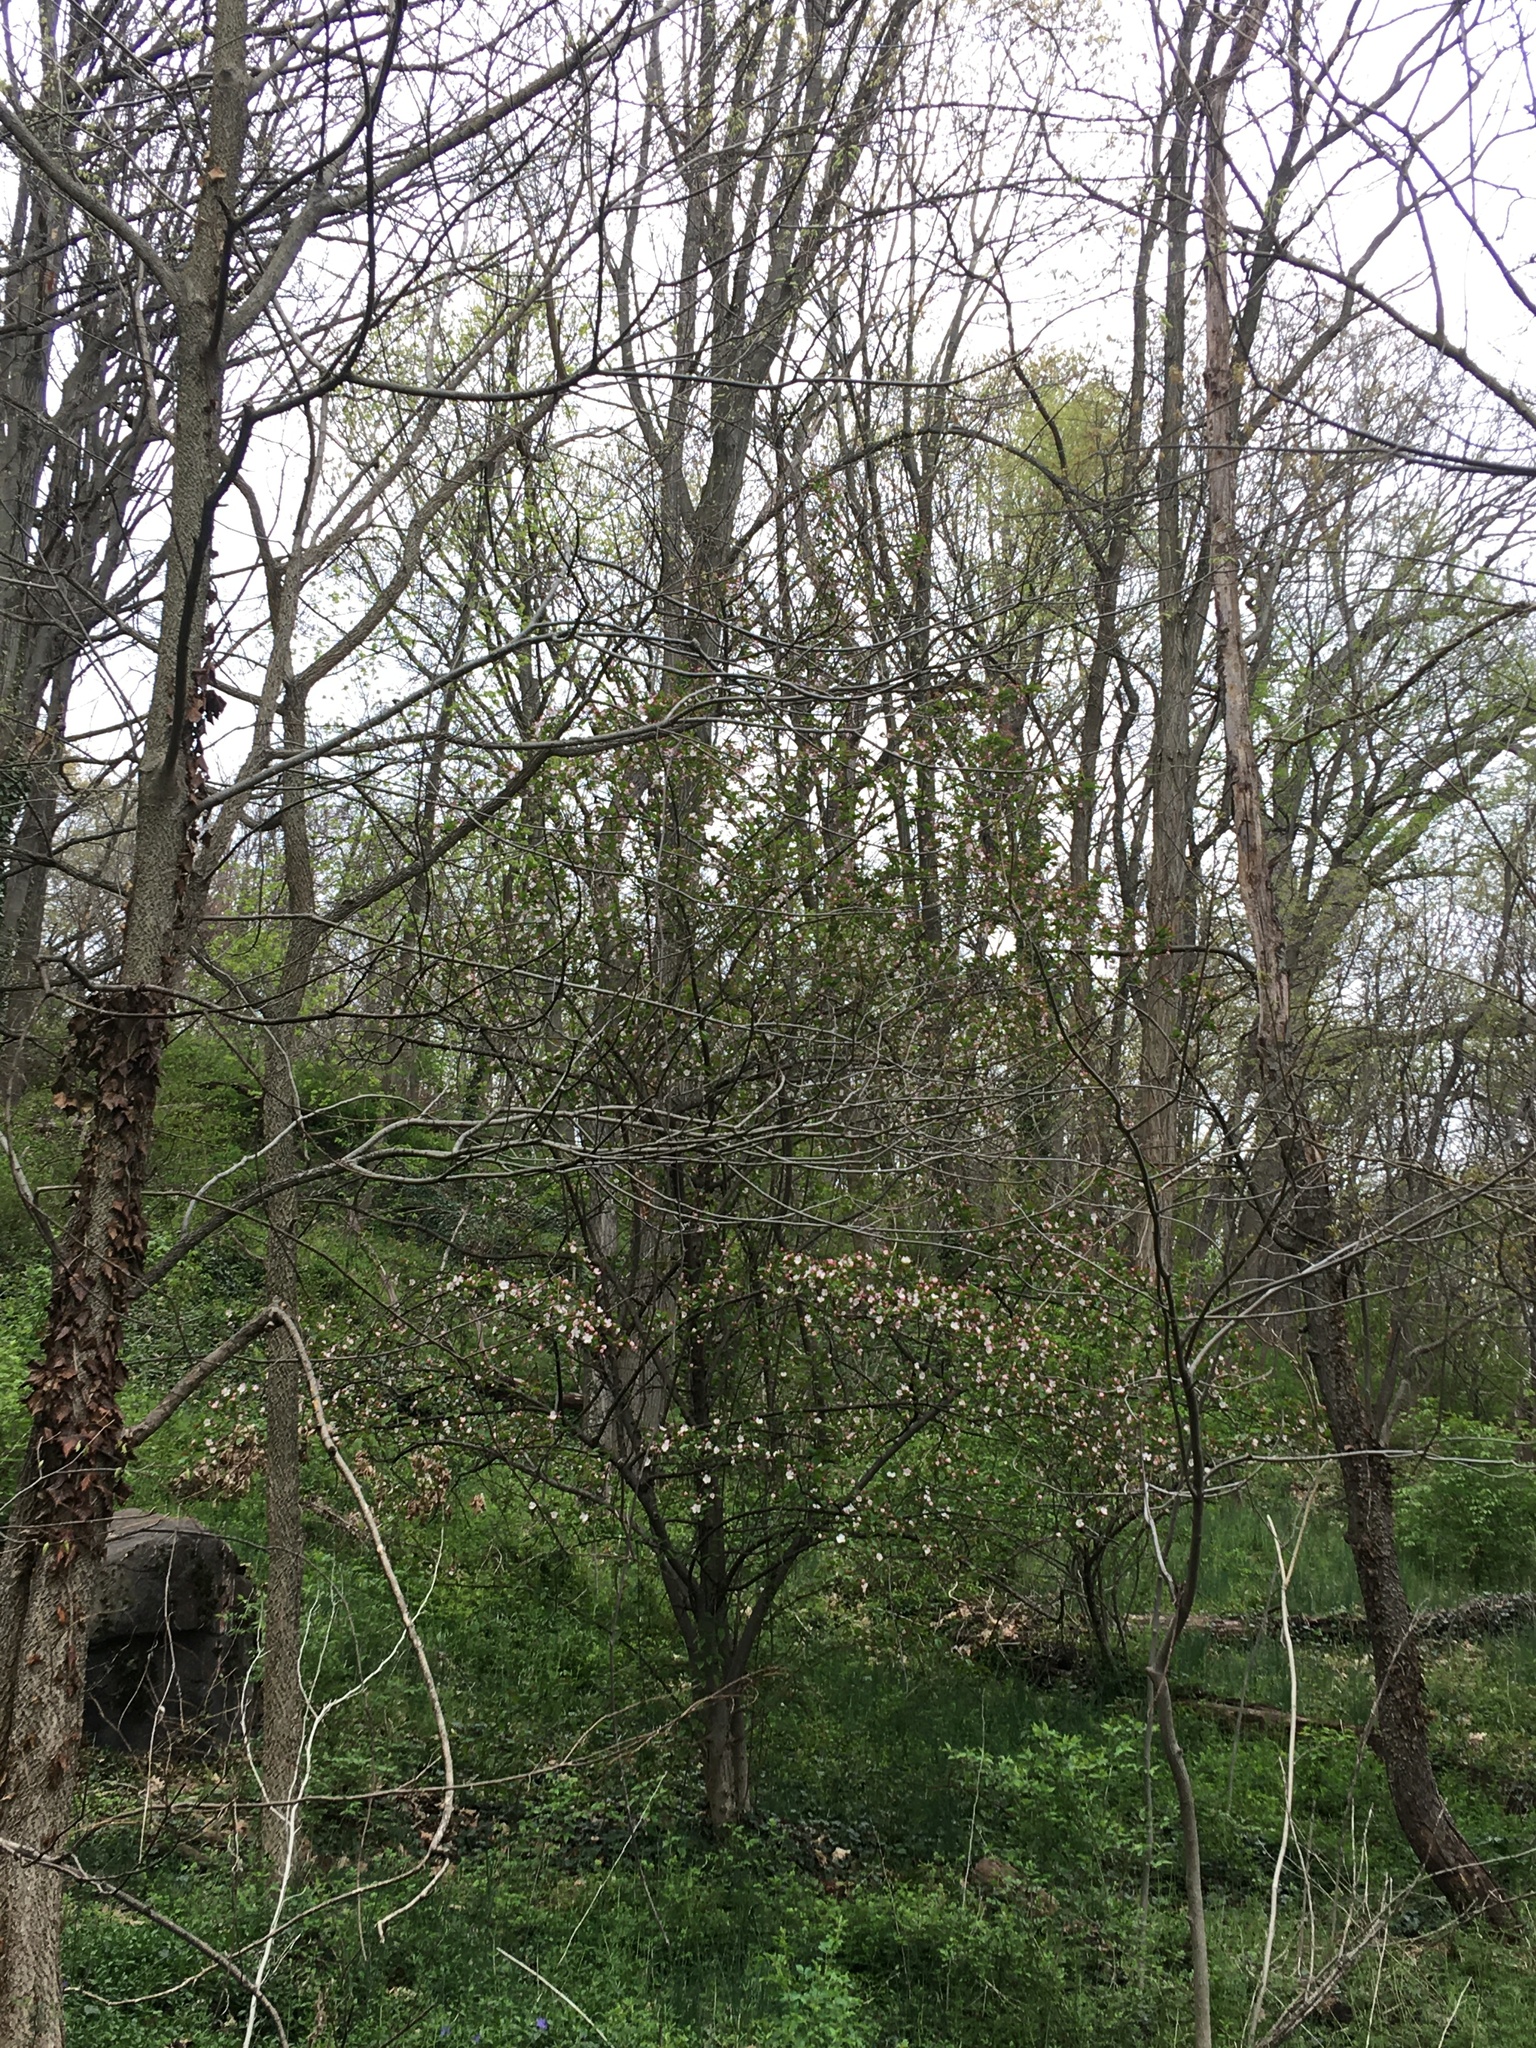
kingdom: Plantae
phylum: Tracheophyta
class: Magnoliopsida
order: Rosales
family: Rosaceae
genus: Malus
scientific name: Malus hupehensis
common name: Chinese crab apple
